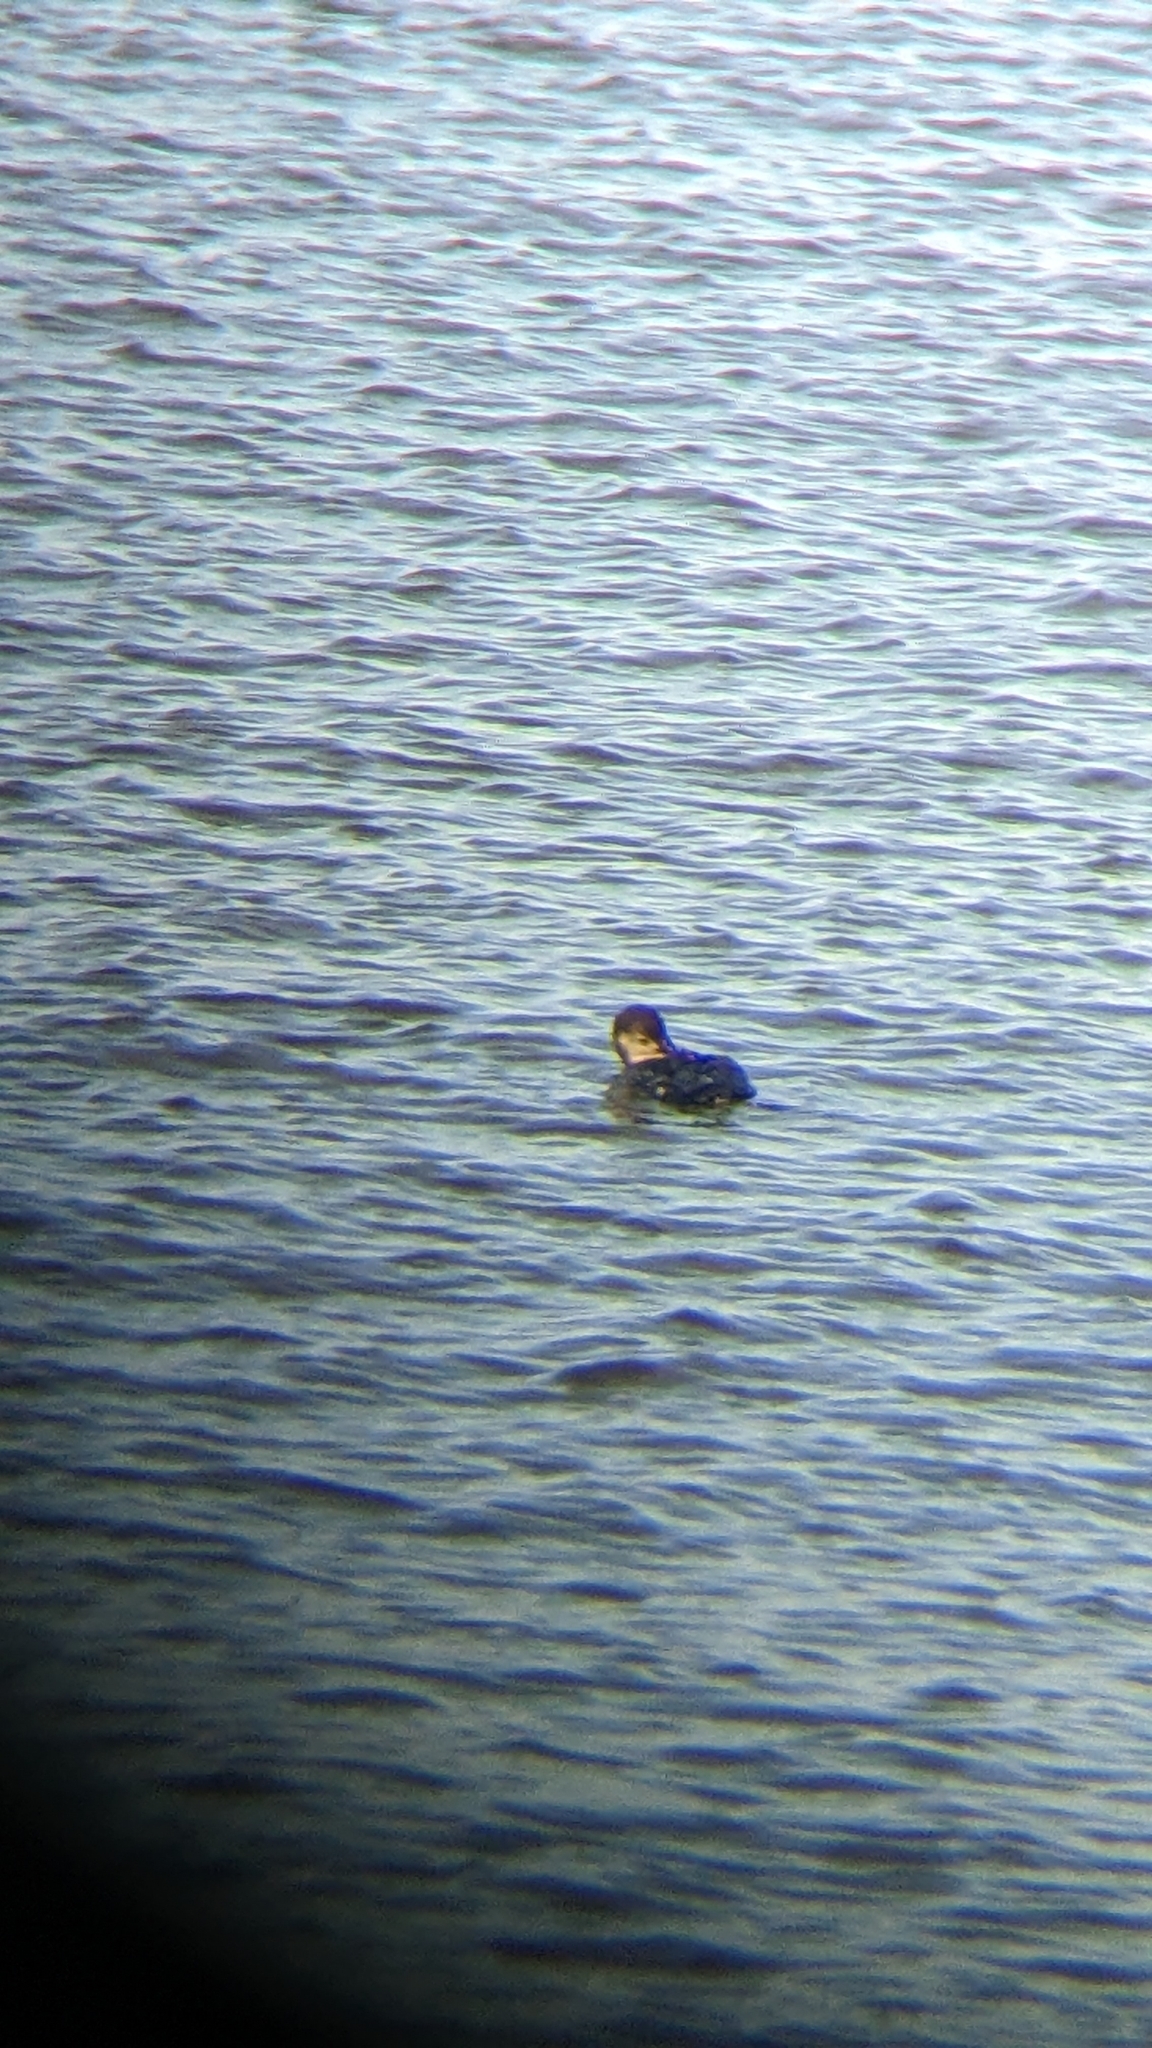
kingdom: Animalia
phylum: Chordata
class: Aves
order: Gaviiformes
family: Gaviidae
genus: Gavia
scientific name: Gavia immer
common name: Common loon
